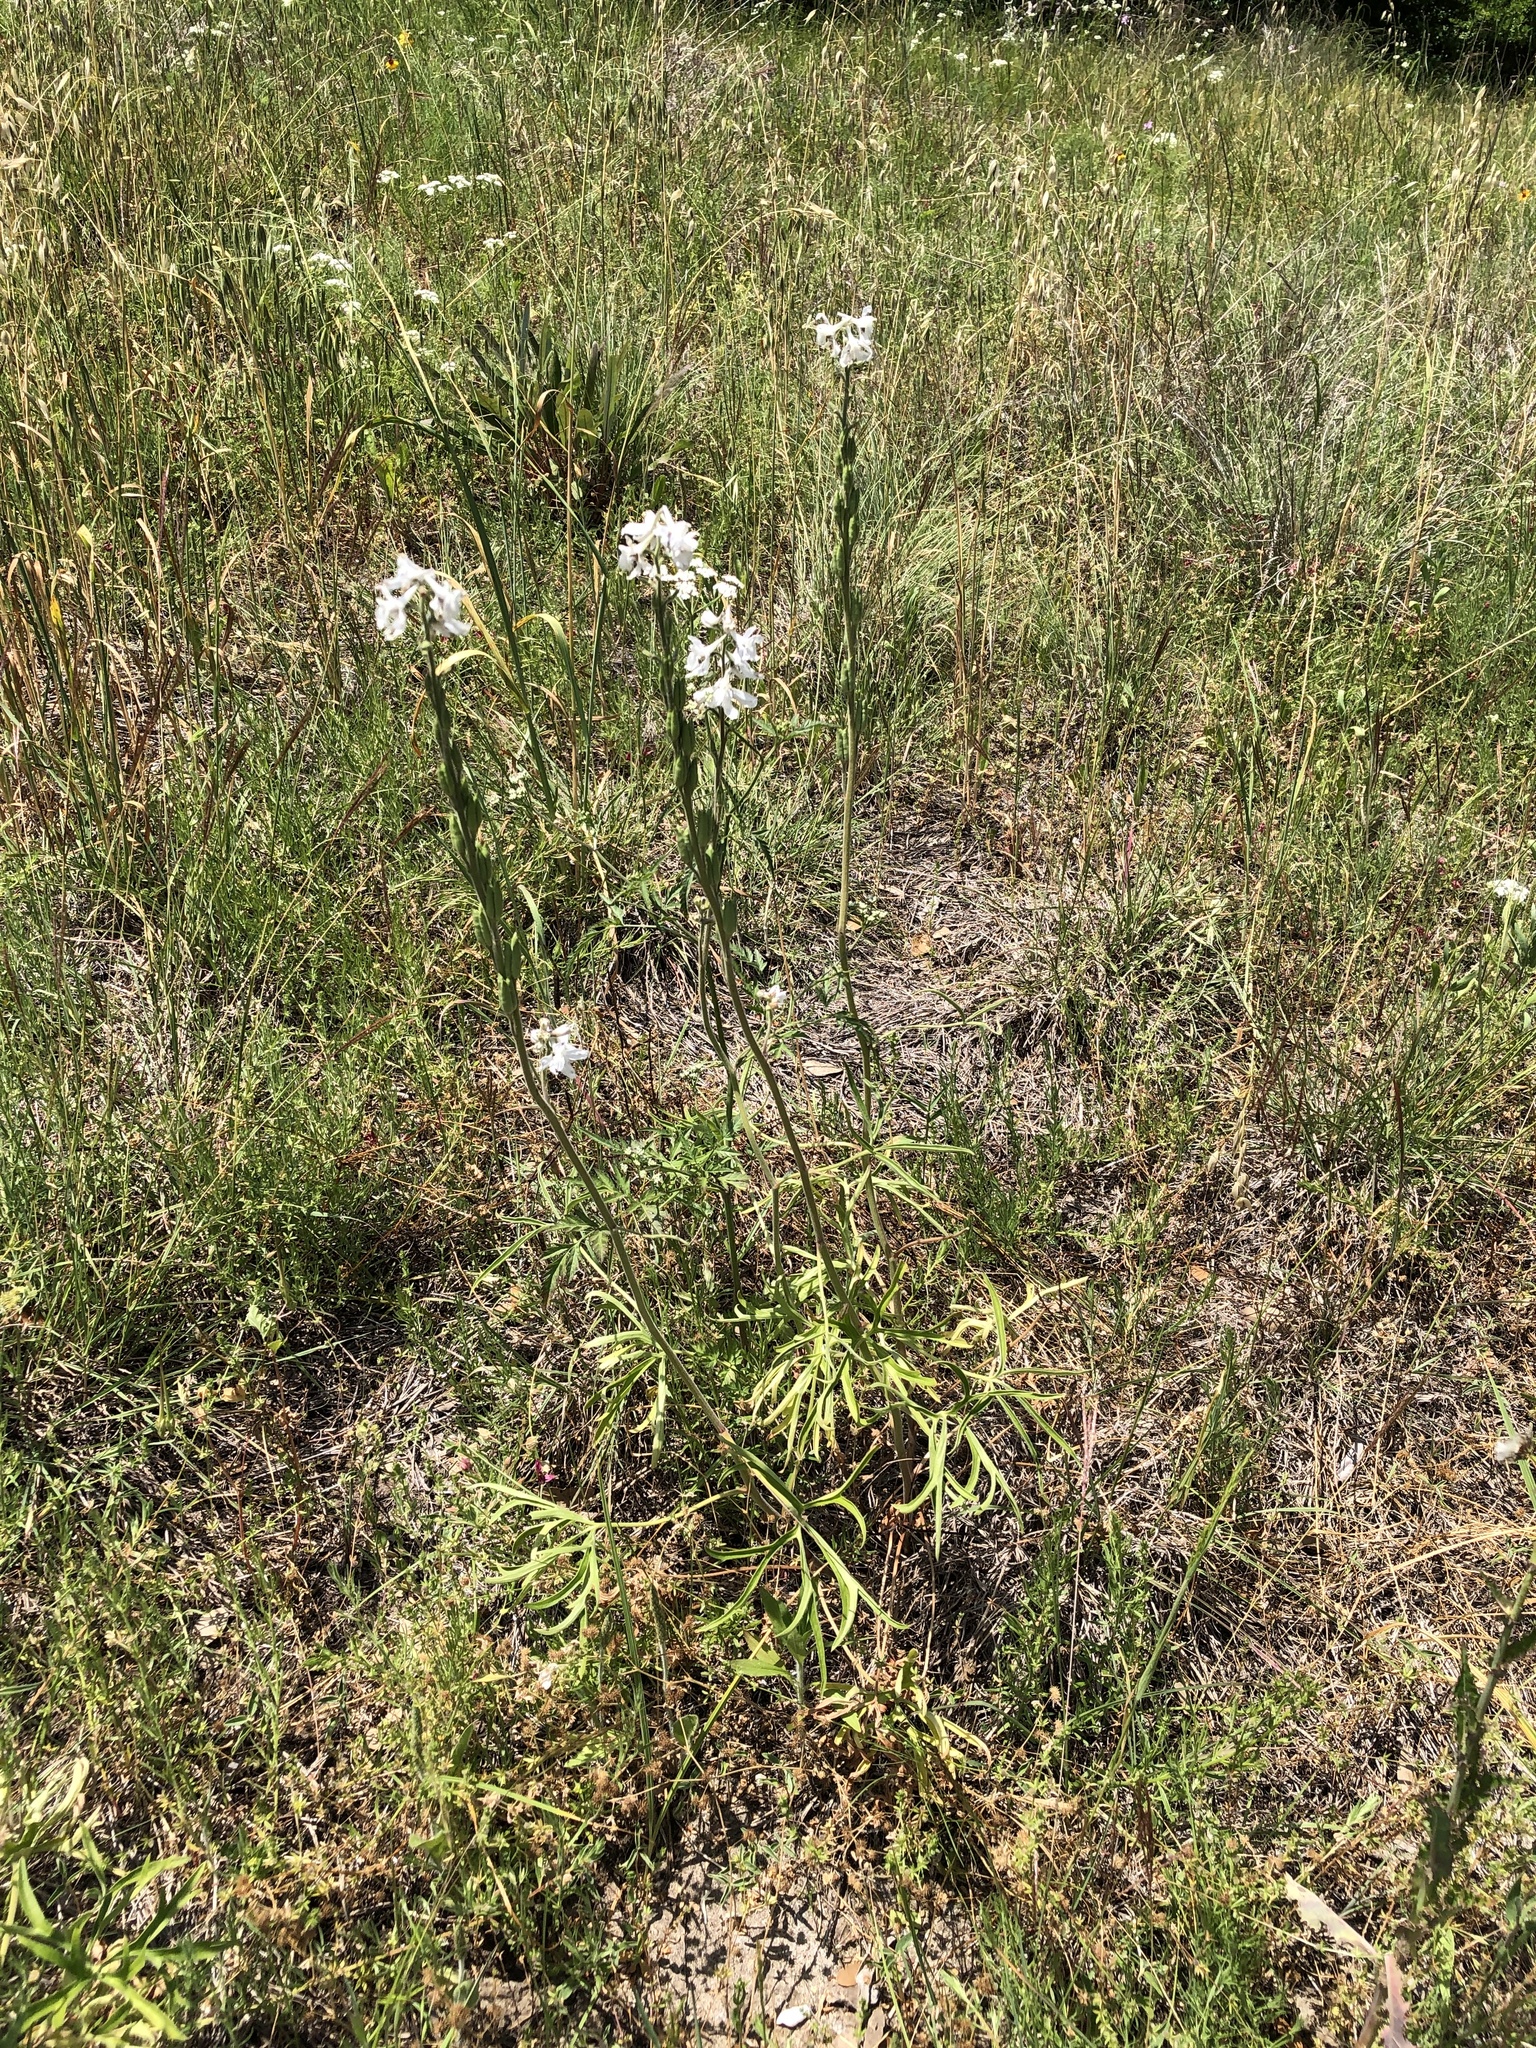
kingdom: Plantae
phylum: Tracheophyta
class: Magnoliopsida
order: Ranunculales
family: Ranunculaceae
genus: Delphinium
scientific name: Delphinium carolinianum
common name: Carolina larkspur
